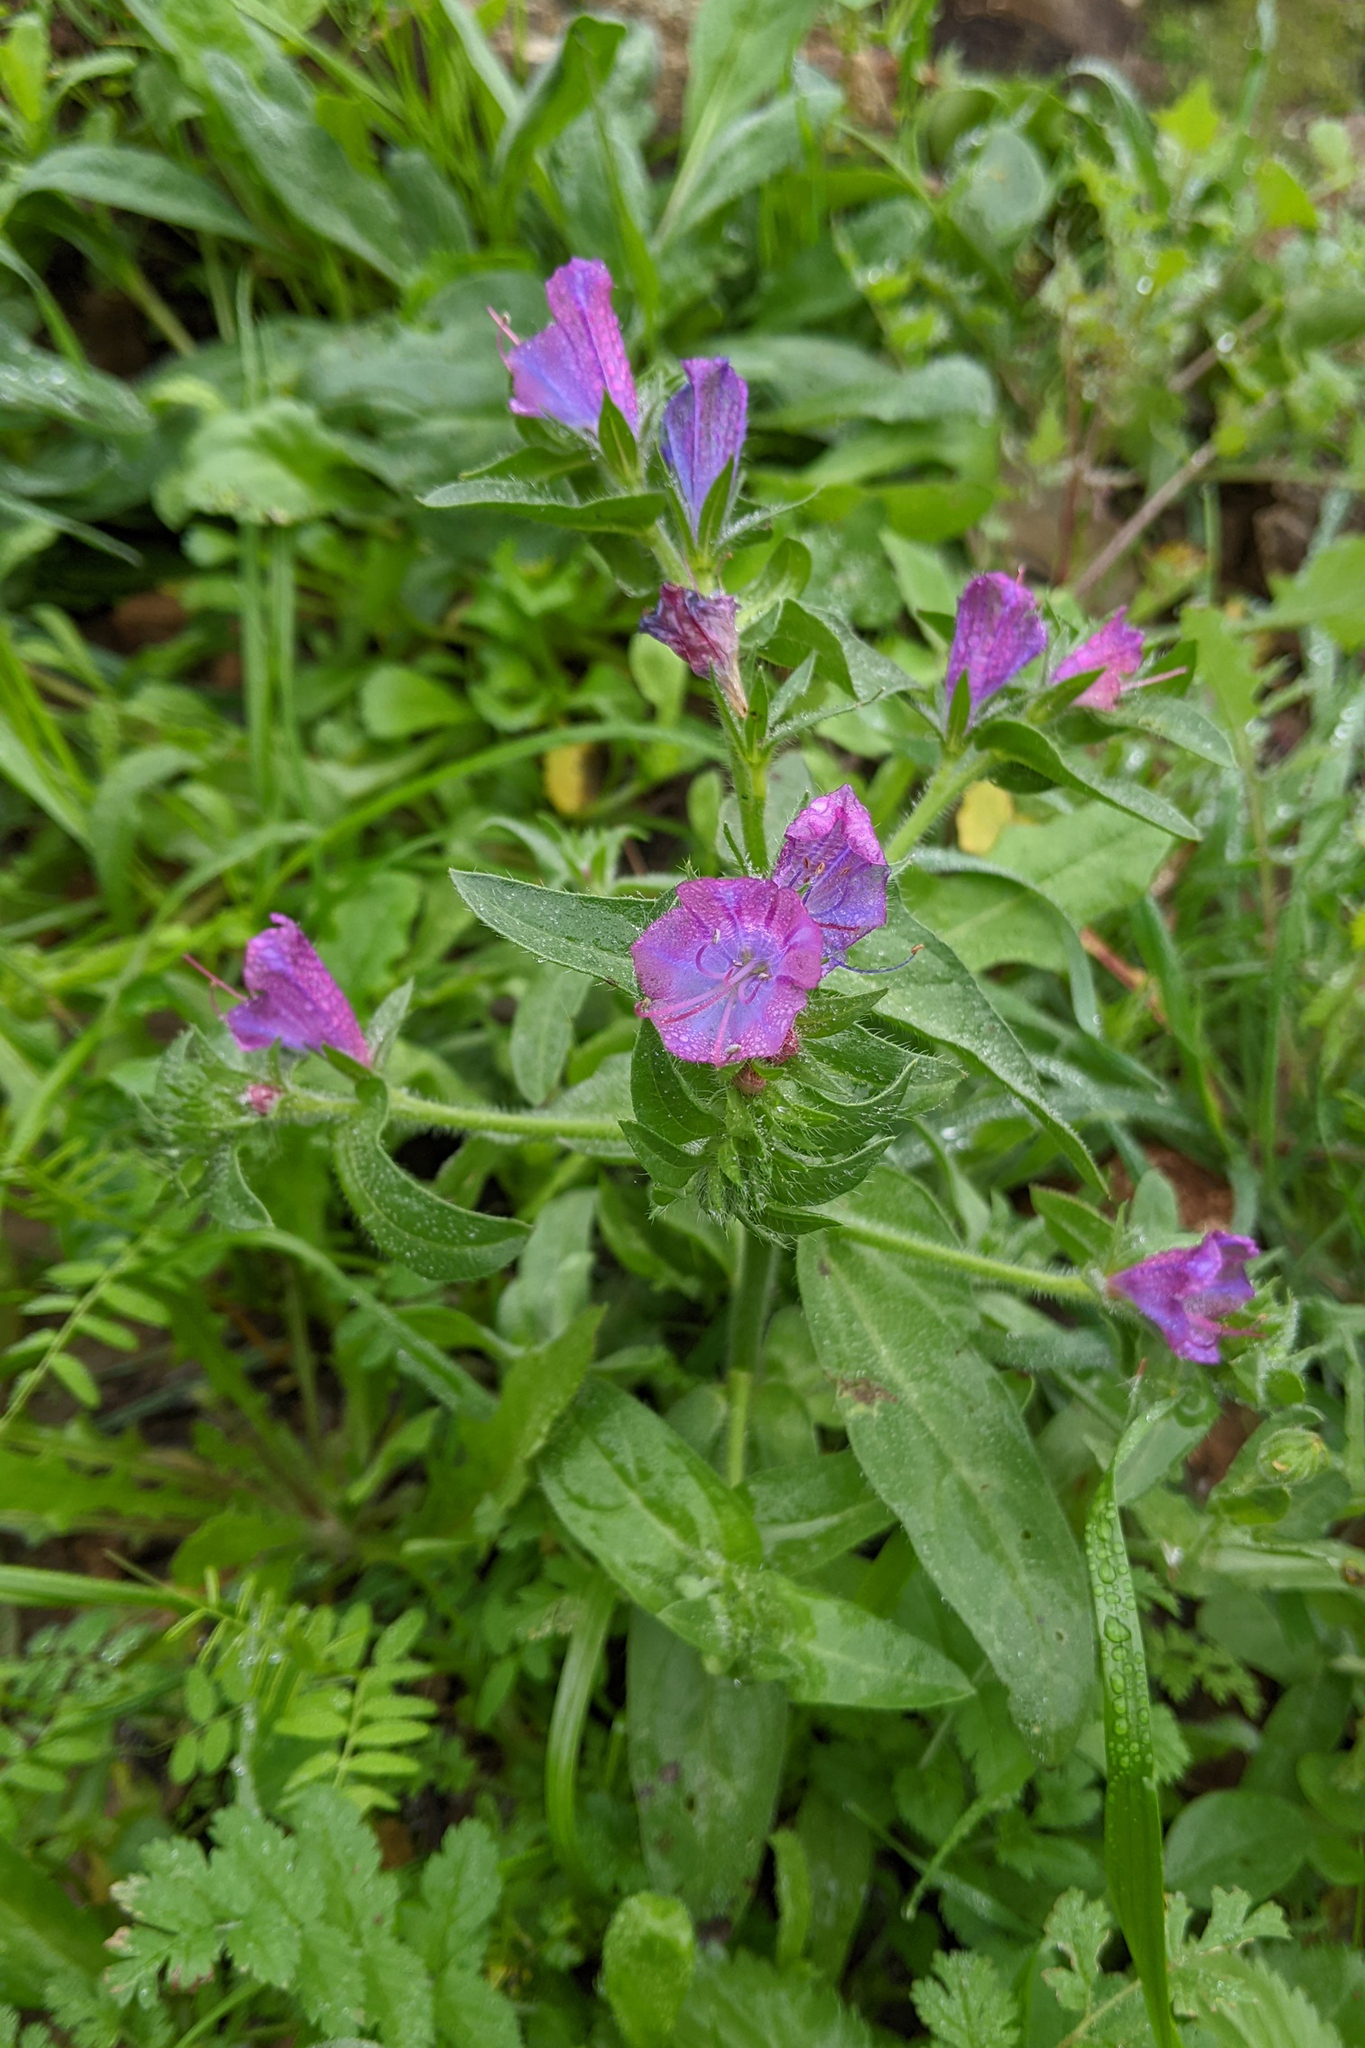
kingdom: Plantae
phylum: Tracheophyta
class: Magnoliopsida
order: Boraginales
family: Boraginaceae
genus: Echium
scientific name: Echium plantagineum
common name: Purple viper's-bugloss
